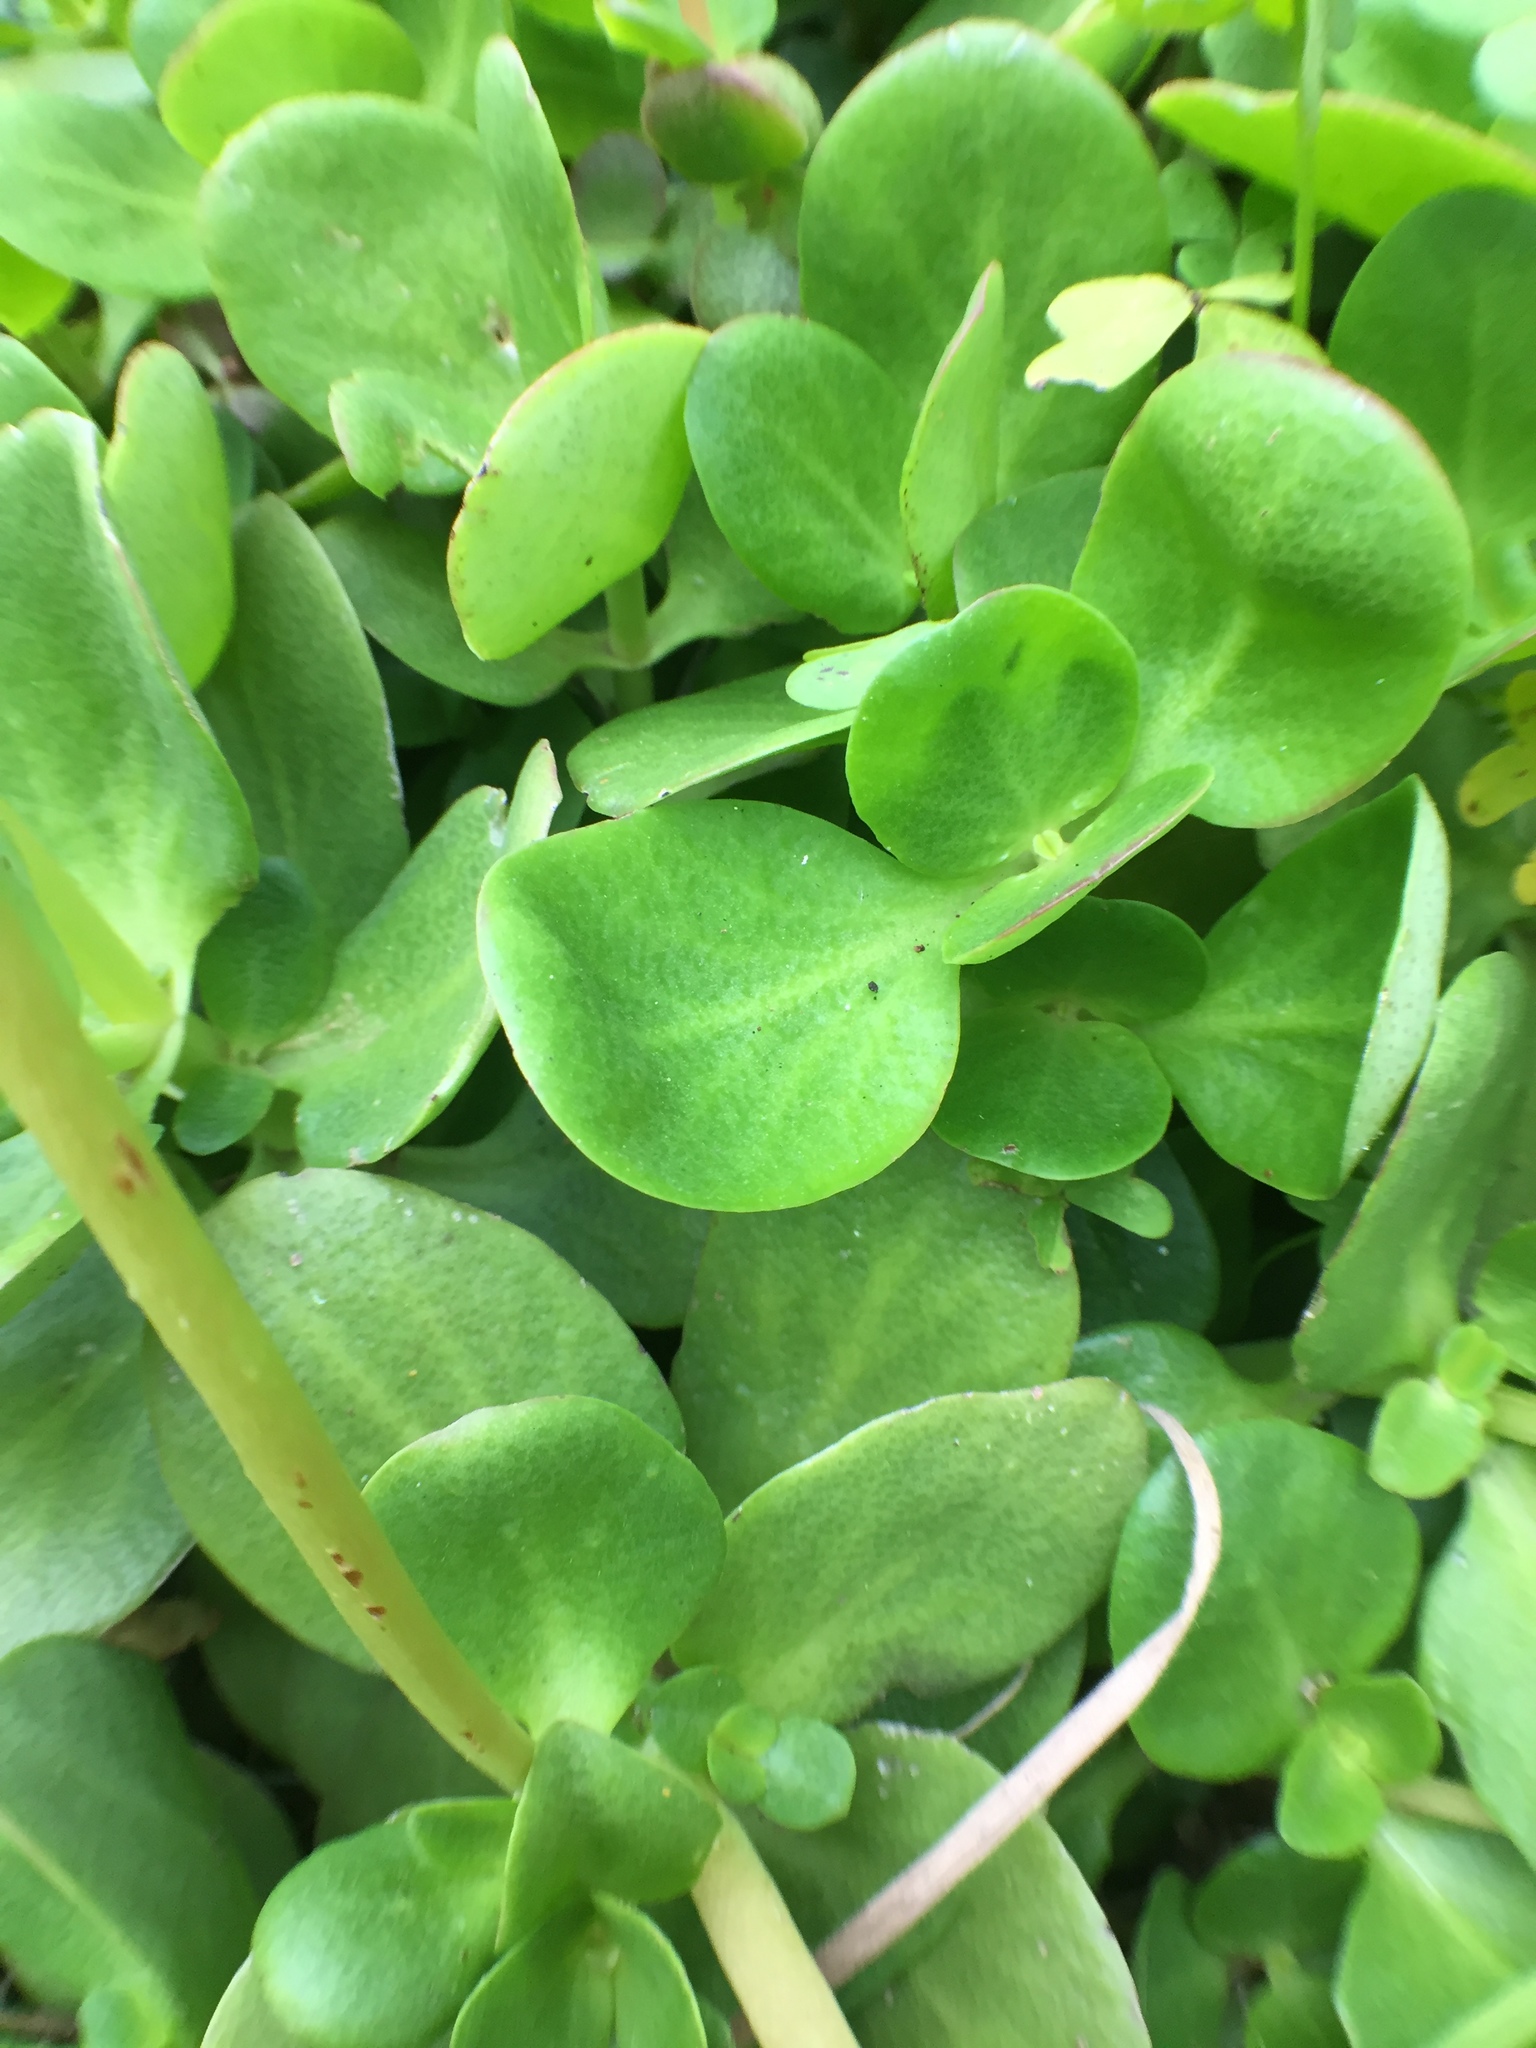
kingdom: Plantae
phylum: Tracheophyta
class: Magnoliopsida
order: Saxifragales
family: Crassulaceae
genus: Crassula
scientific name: Crassula multicava
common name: Cape province pygmyweed
